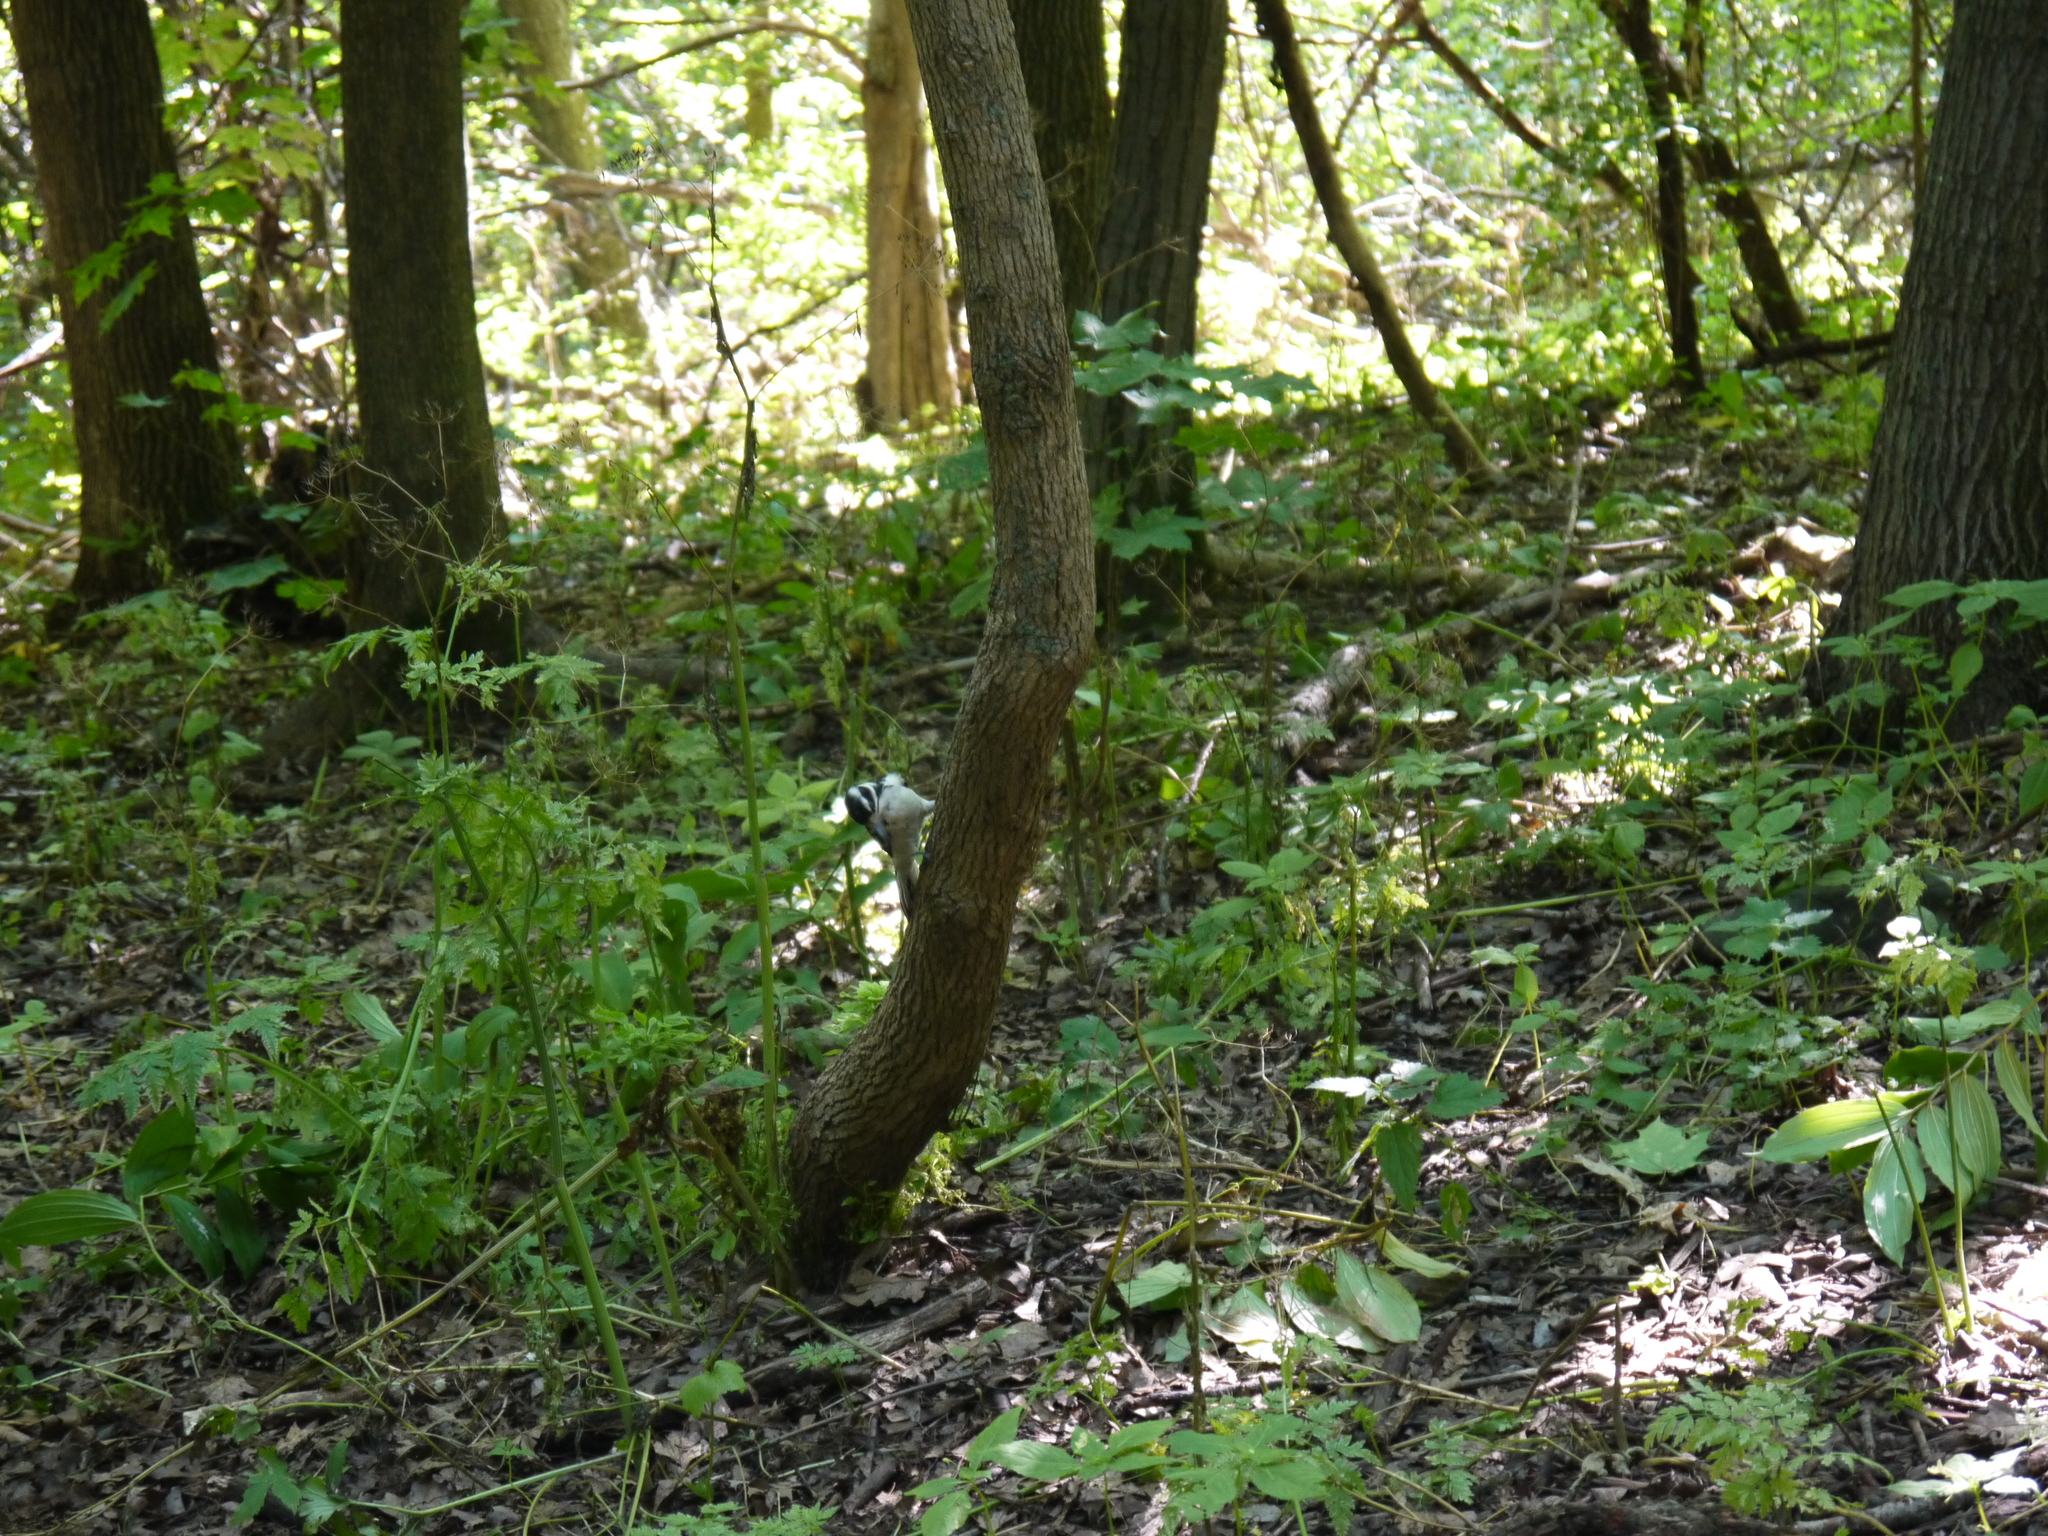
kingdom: Animalia
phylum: Chordata
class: Aves
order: Piciformes
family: Picidae
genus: Leuconotopicus
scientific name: Leuconotopicus villosus
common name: Hairy woodpecker
